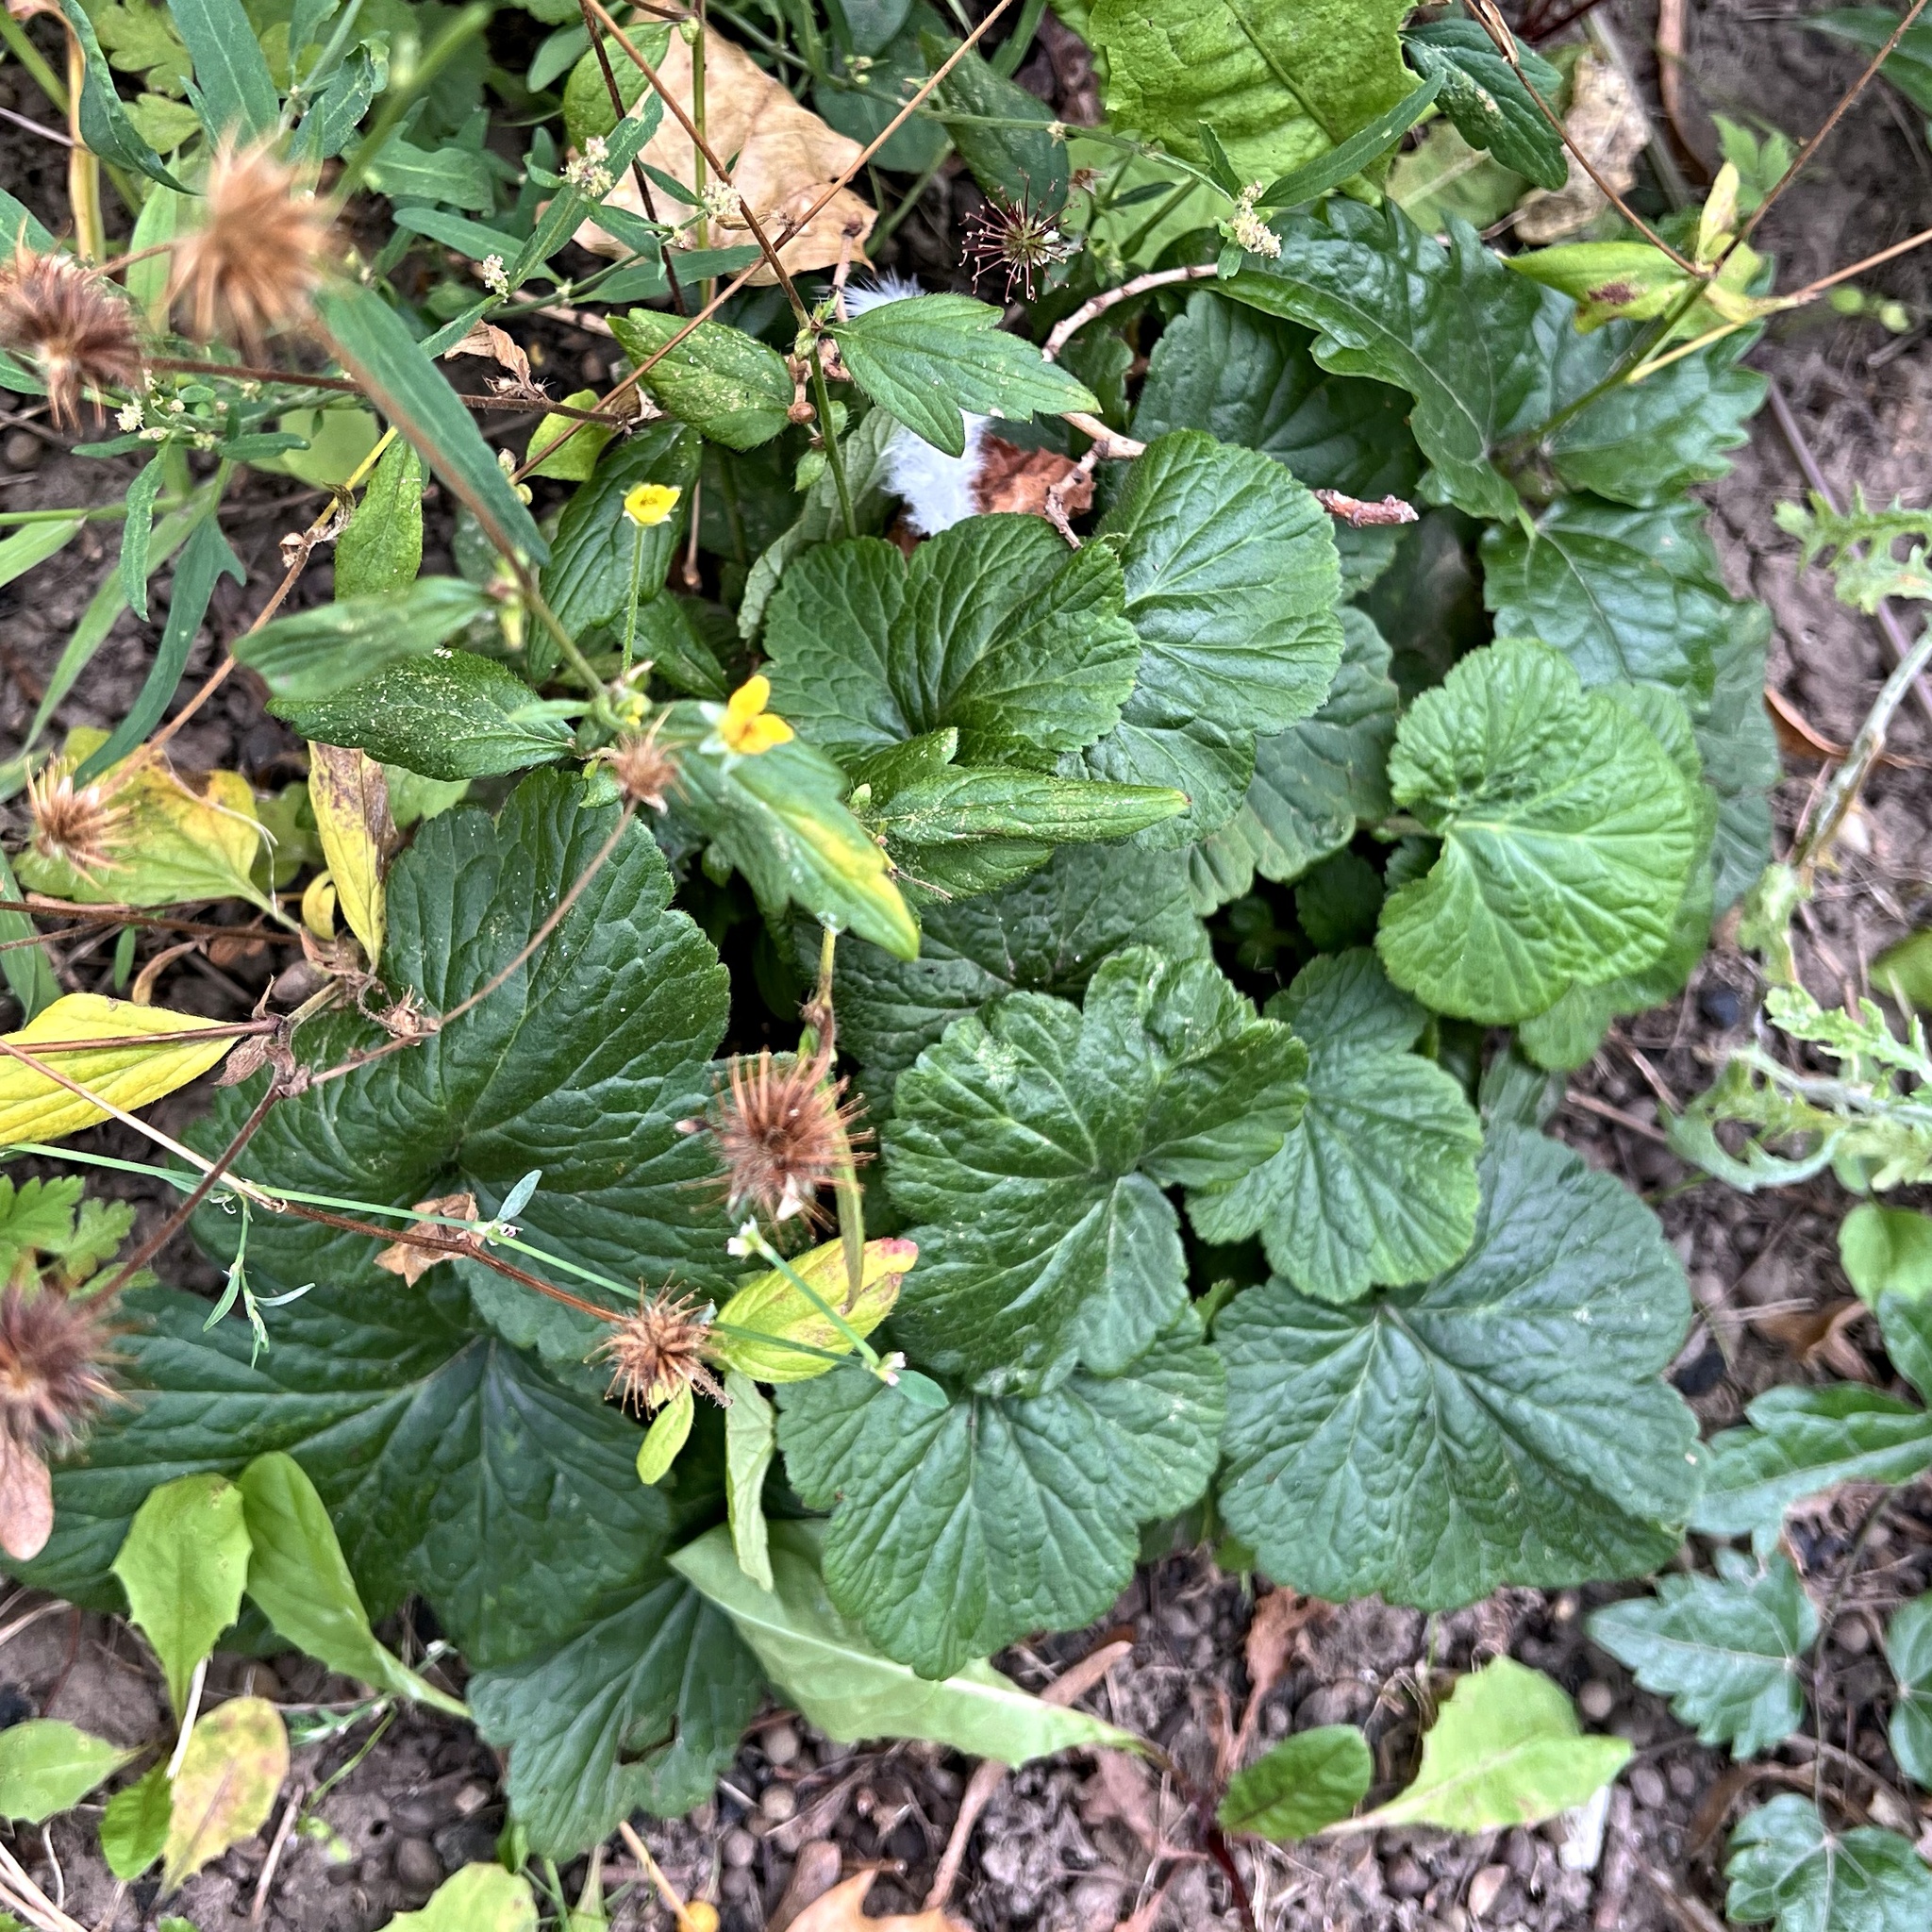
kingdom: Plantae
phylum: Tracheophyta
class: Magnoliopsida
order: Rosales
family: Rosaceae
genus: Geum
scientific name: Geum urbanum
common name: Wood avens
